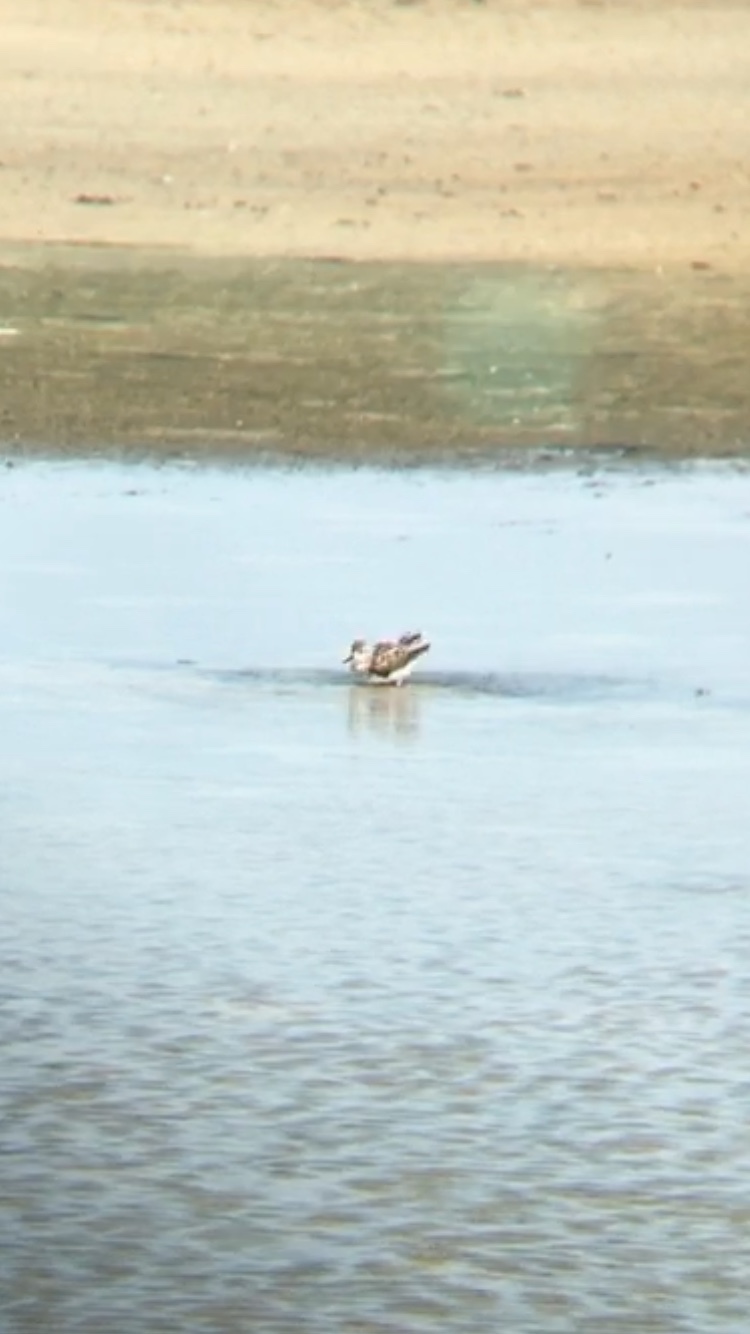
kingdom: Animalia
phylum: Chordata
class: Aves
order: Charadriiformes
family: Scolopacidae
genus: Calidris
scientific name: Calidris alba
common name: Sanderling
